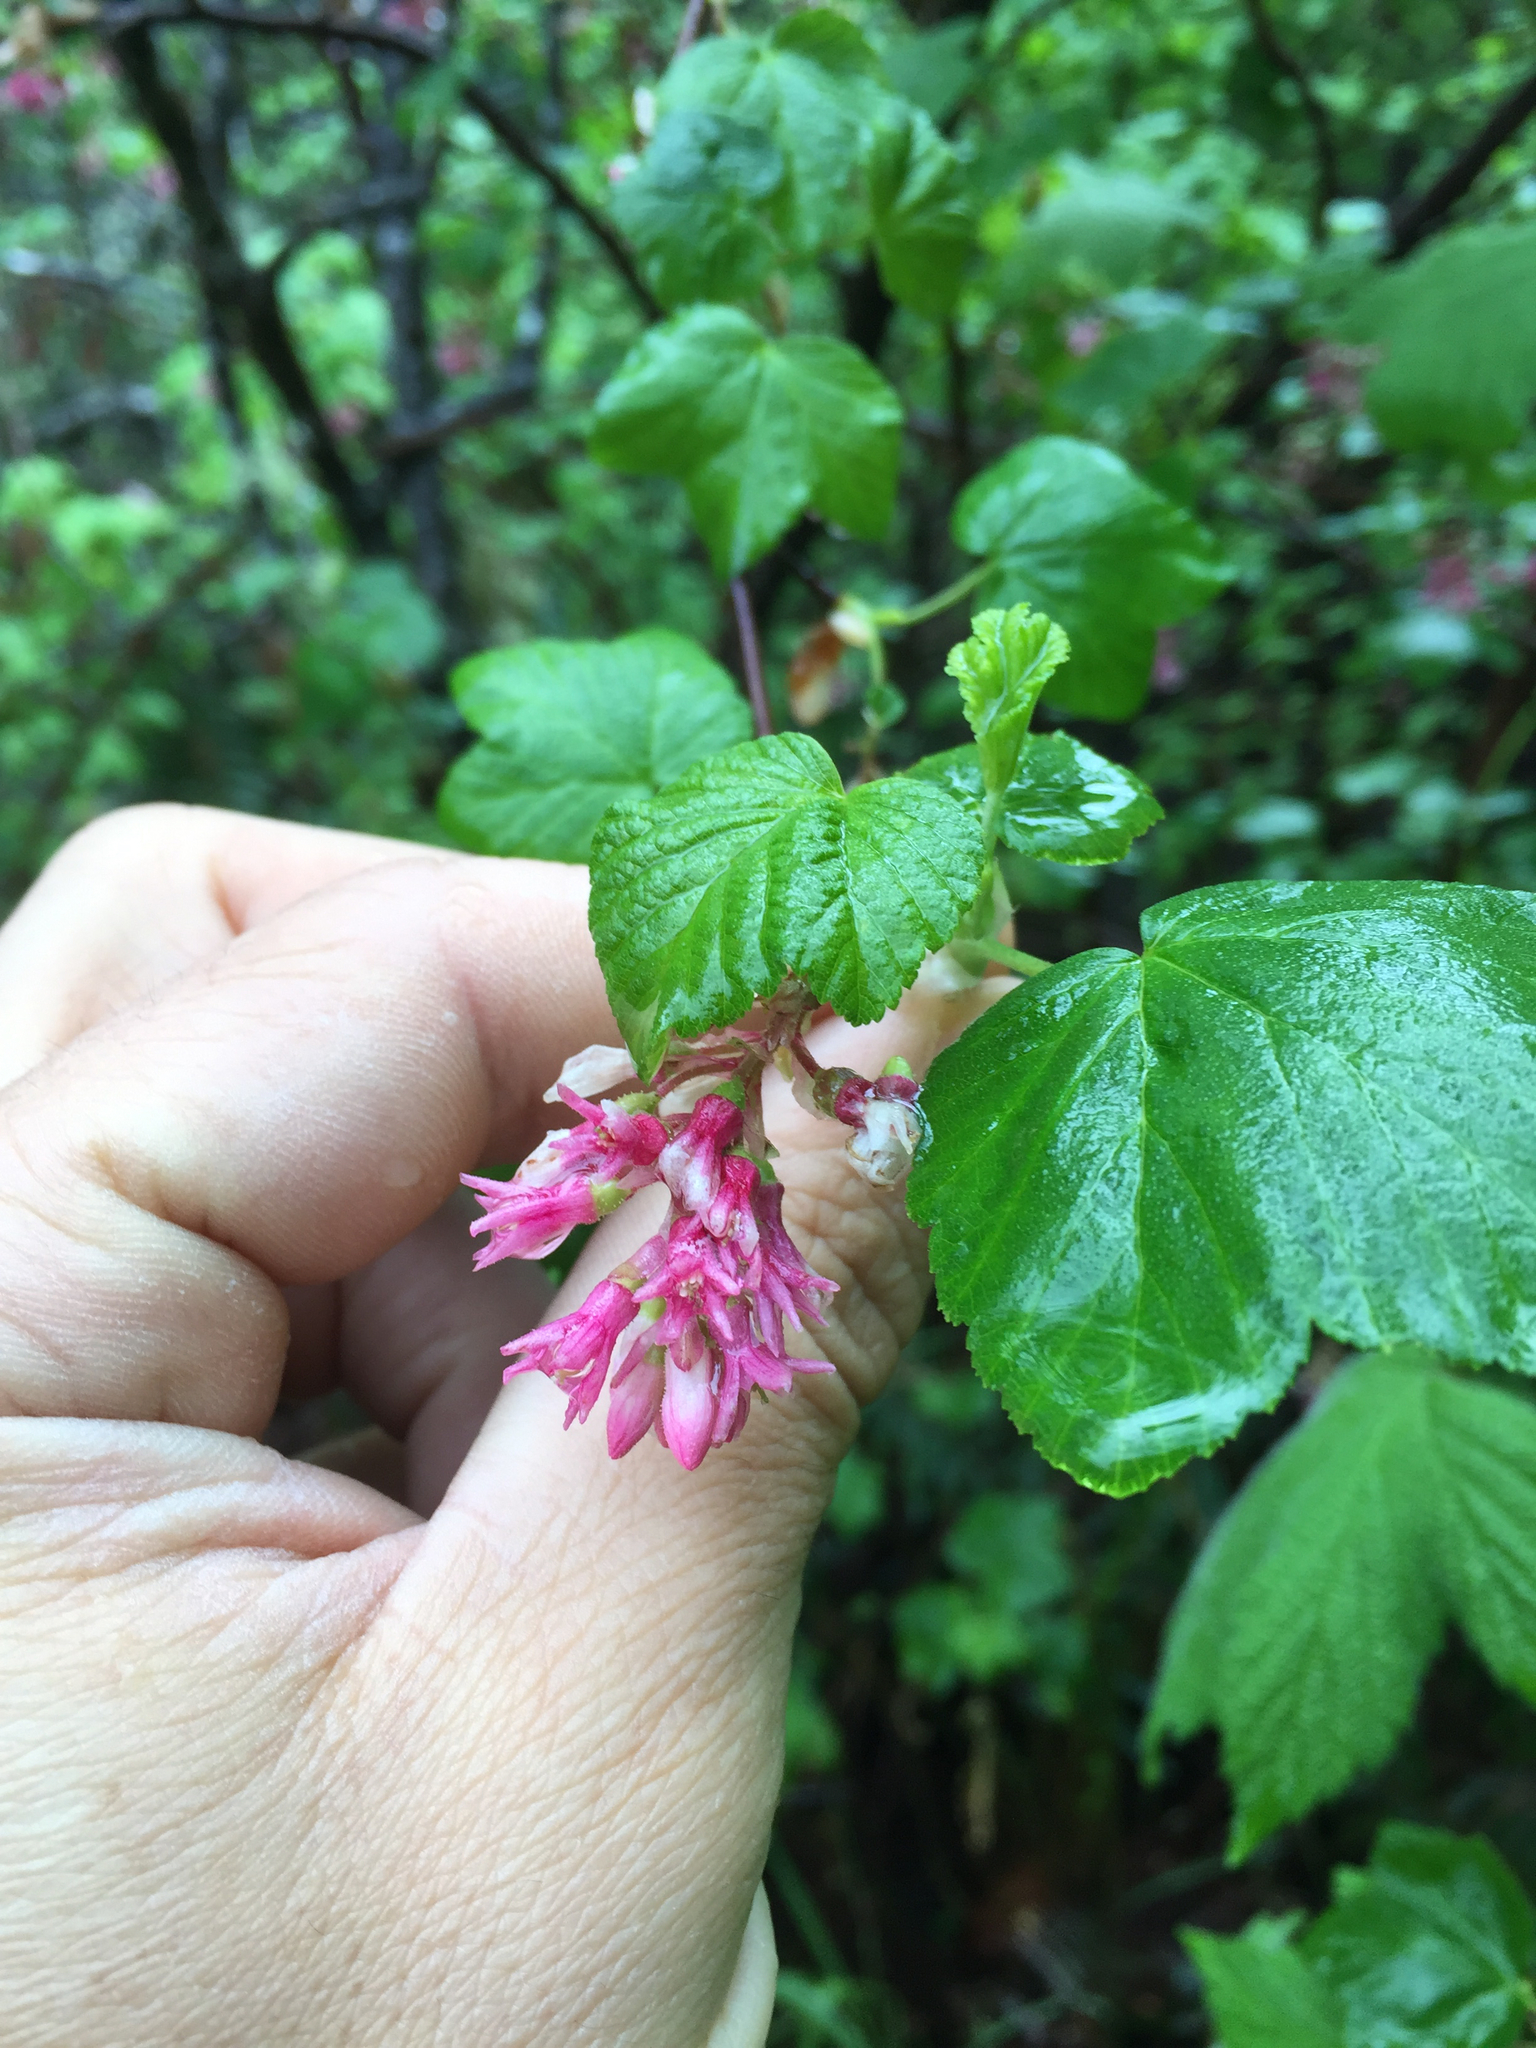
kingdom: Plantae
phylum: Tracheophyta
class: Magnoliopsida
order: Saxifragales
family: Grossulariaceae
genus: Ribes
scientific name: Ribes sanguineum
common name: Flowering currant
